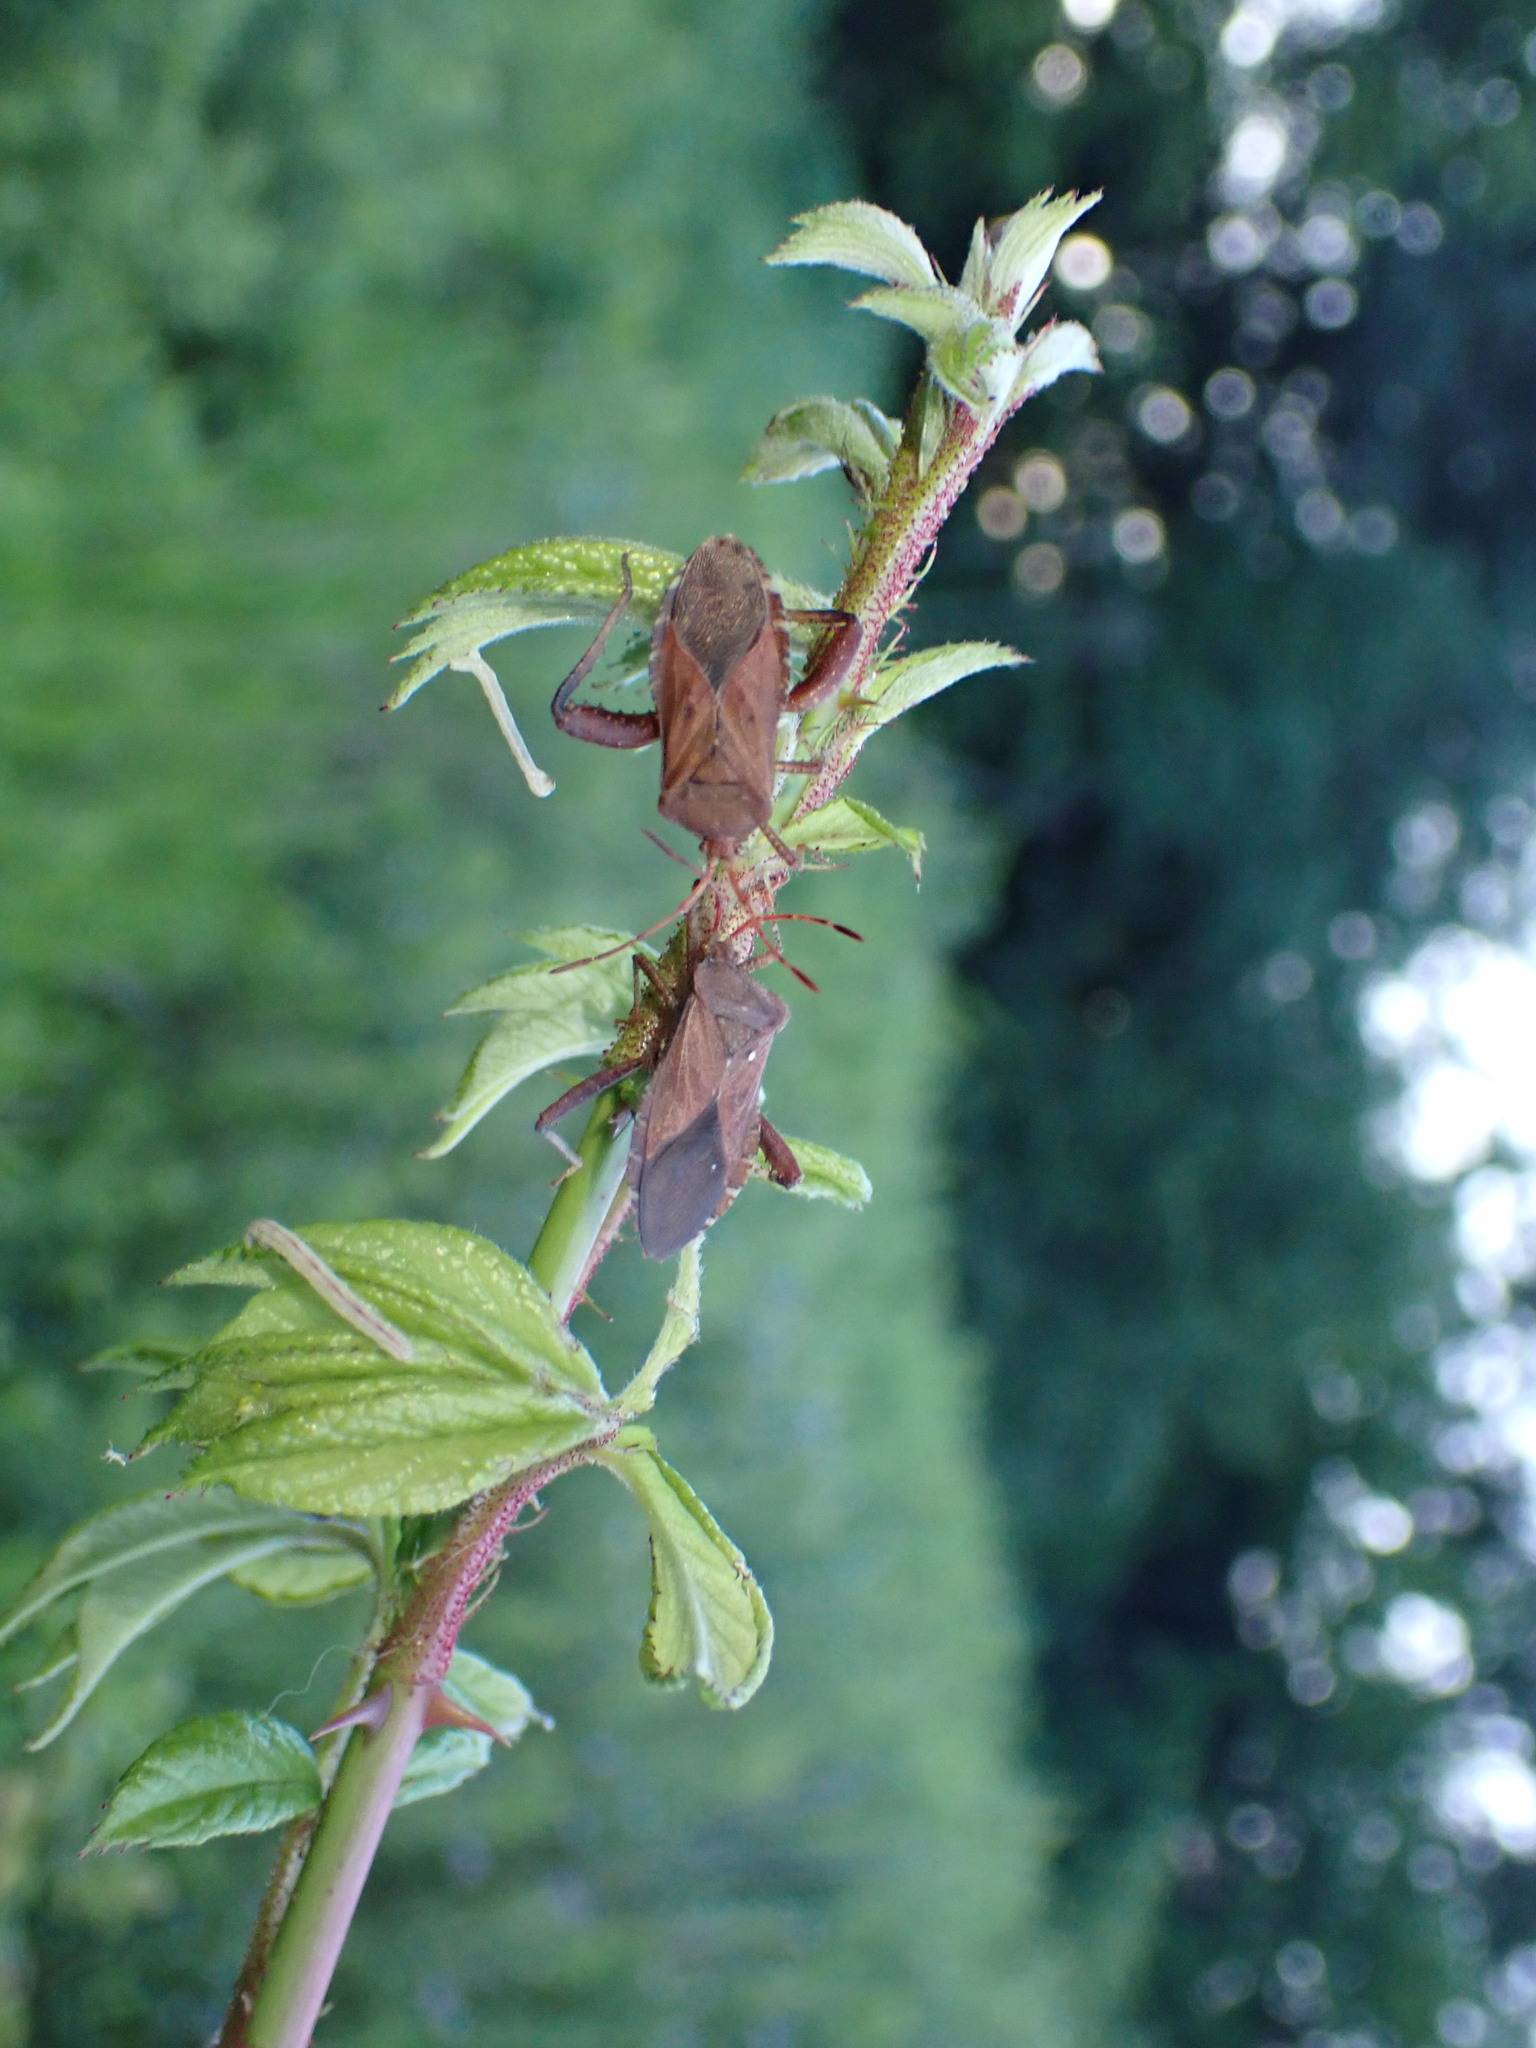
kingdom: Animalia
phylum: Arthropoda
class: Insecta
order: Hemiptera
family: Coreidae
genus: Euthochtha
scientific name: Euthochtha galeator
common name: Helmeted squash bug
